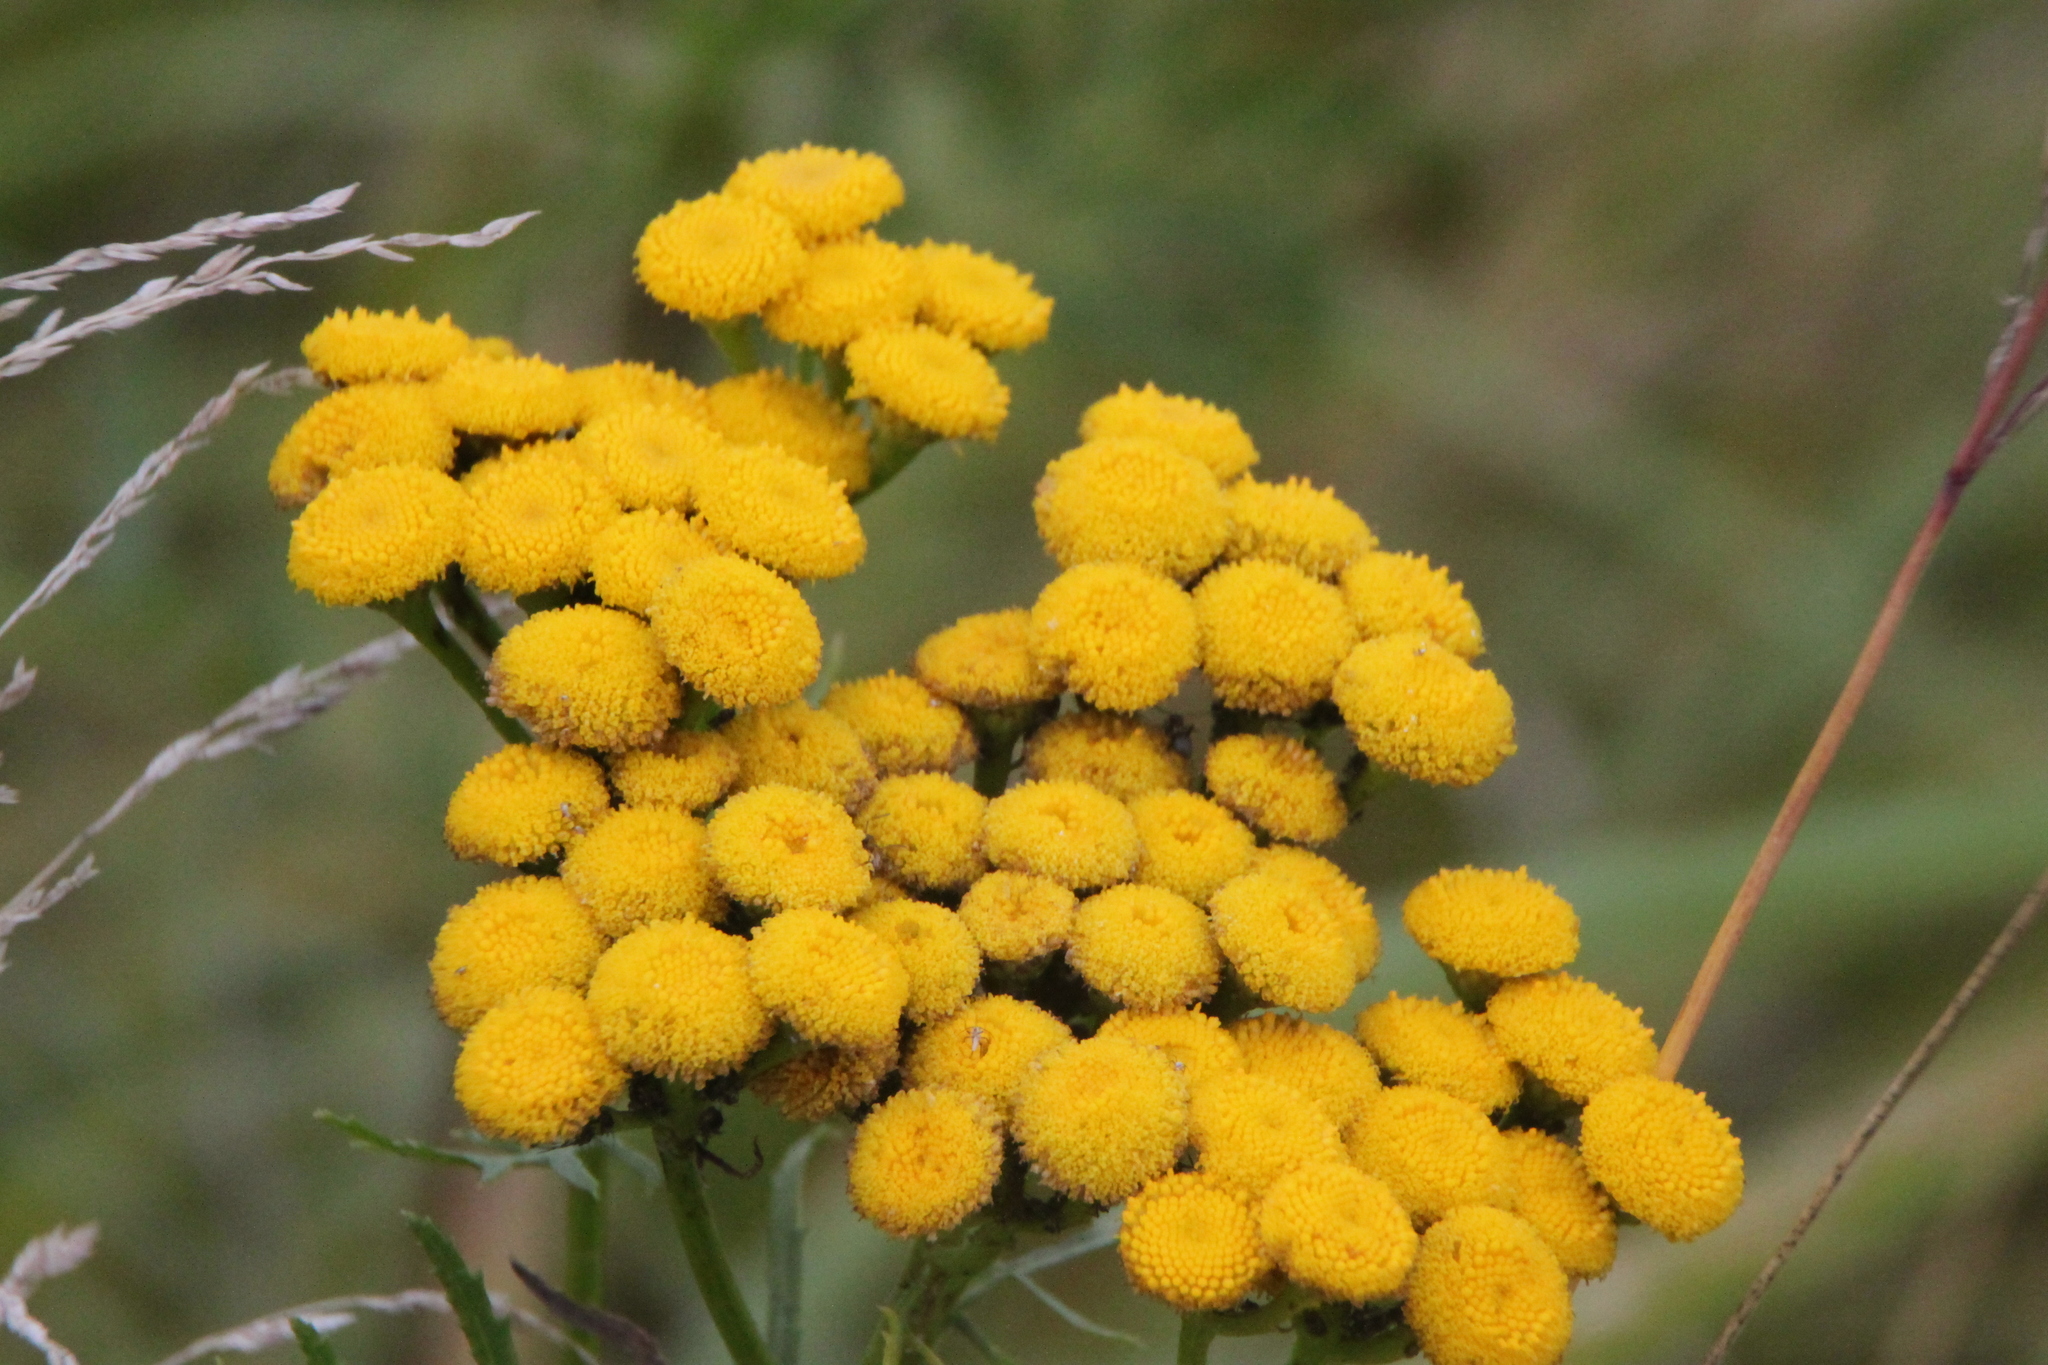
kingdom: Plantae
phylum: Tracheophyta
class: Magnoliopsida
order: Asterales
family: Asteraceae
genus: Tanacetum
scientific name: Tanacetum vulgare
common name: Common tansy
